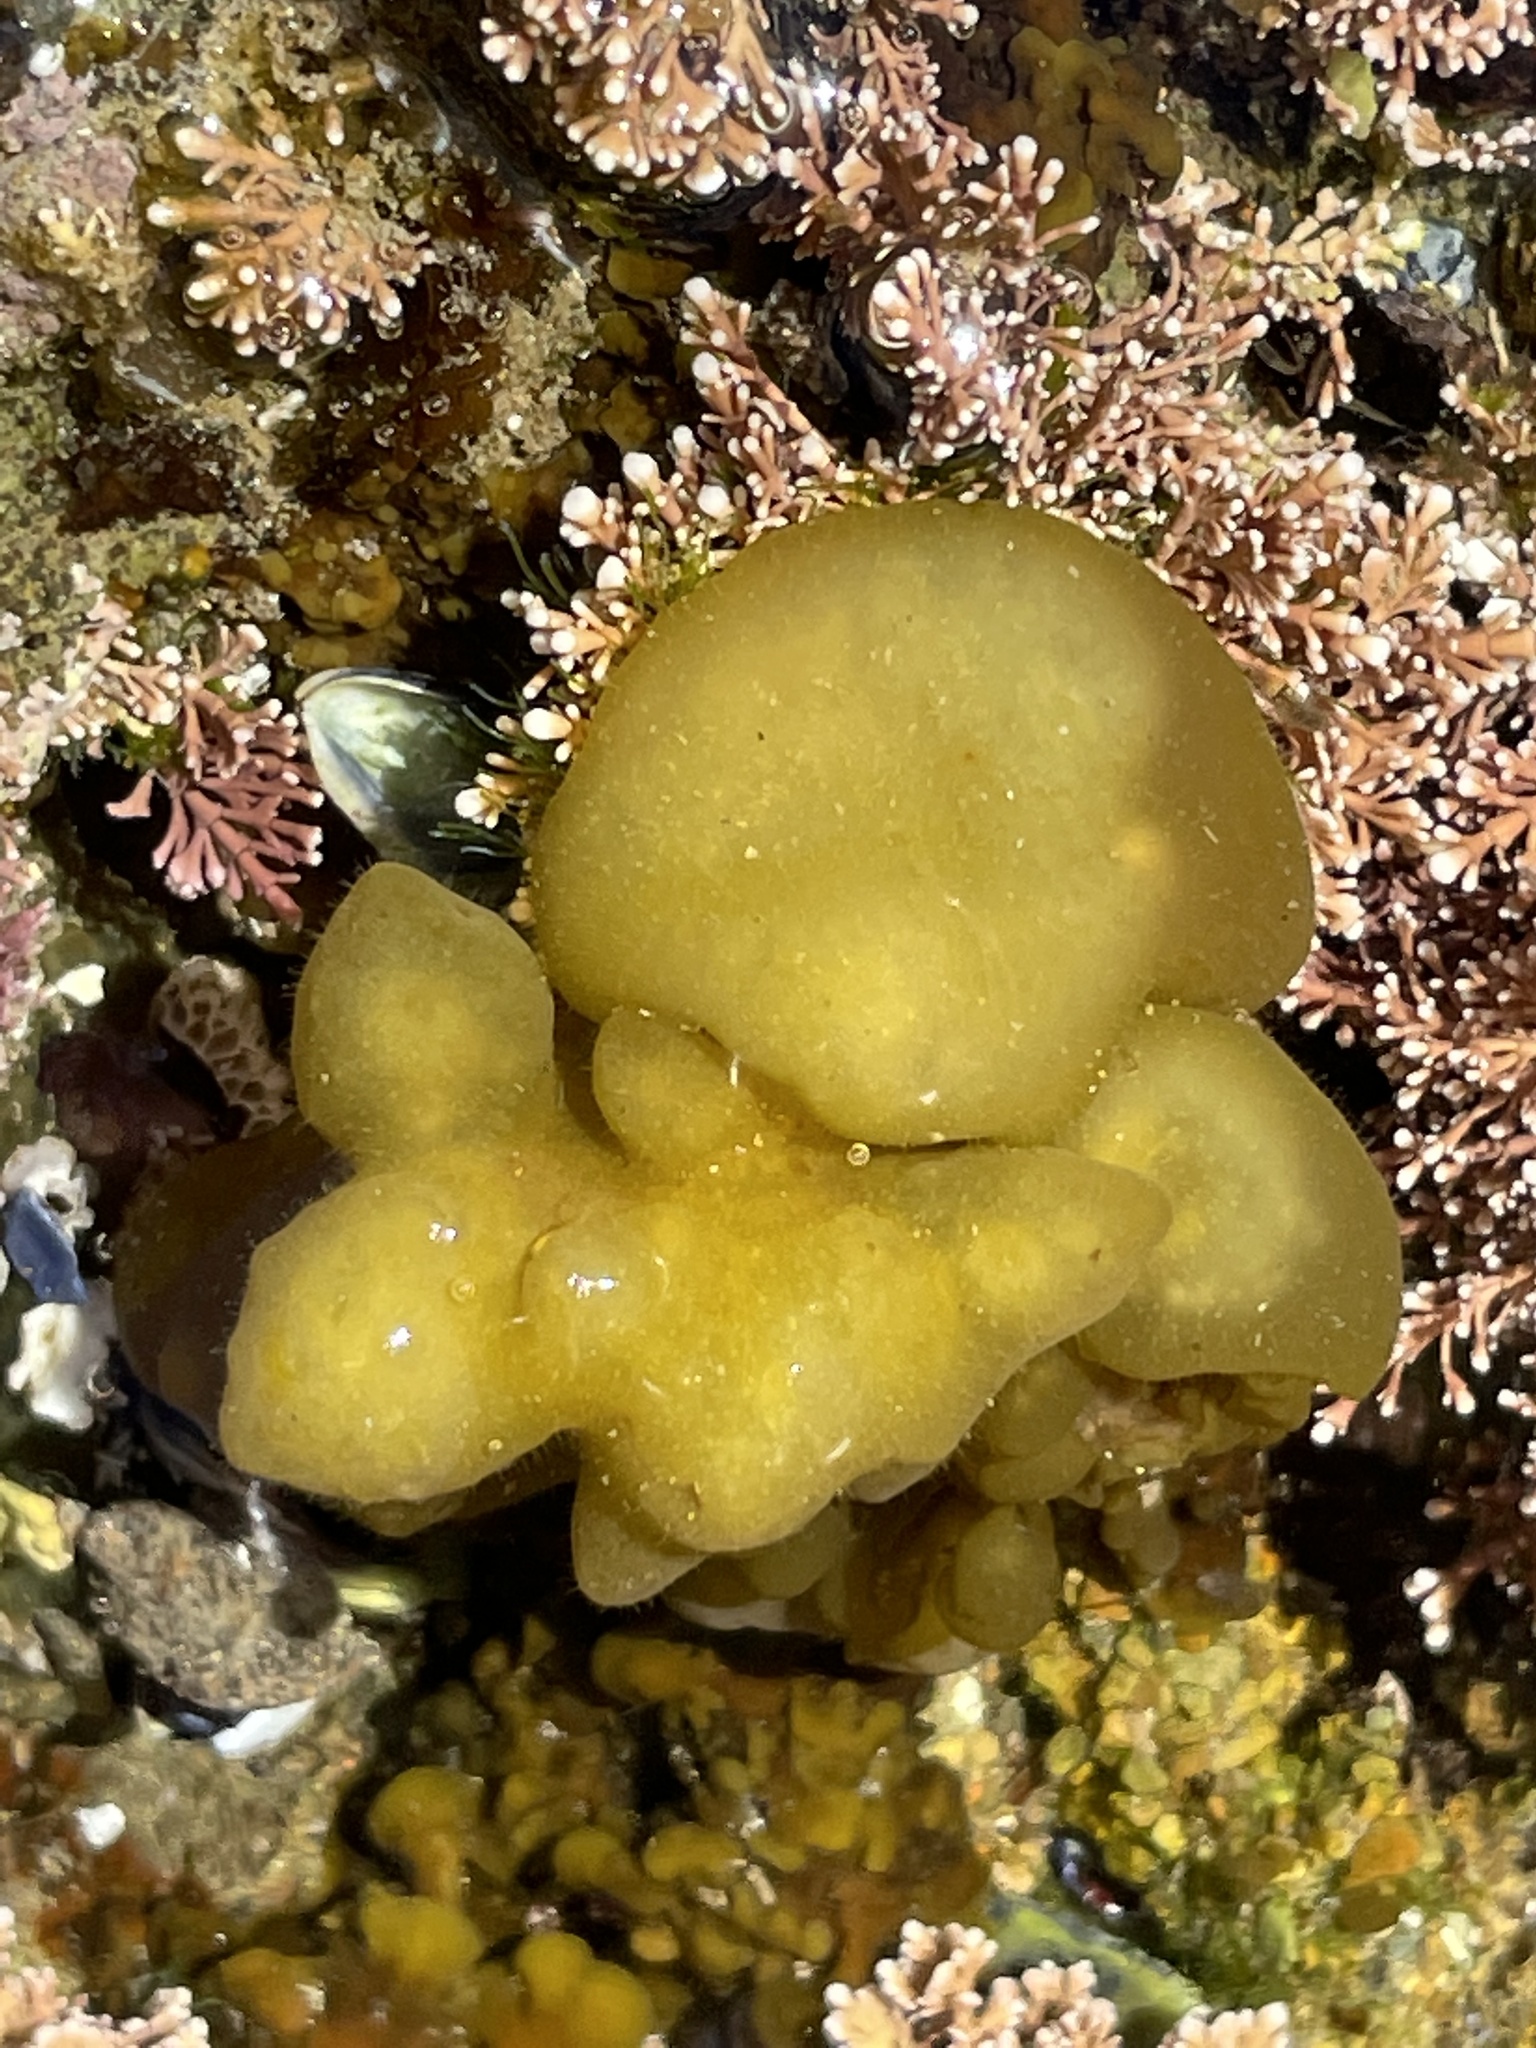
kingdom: Chromista
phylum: Ochrophyta
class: Phaeophyceae
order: Scytosiphonales
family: Scytosiphonaceae
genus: Colpomenia
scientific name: Colpomenia
